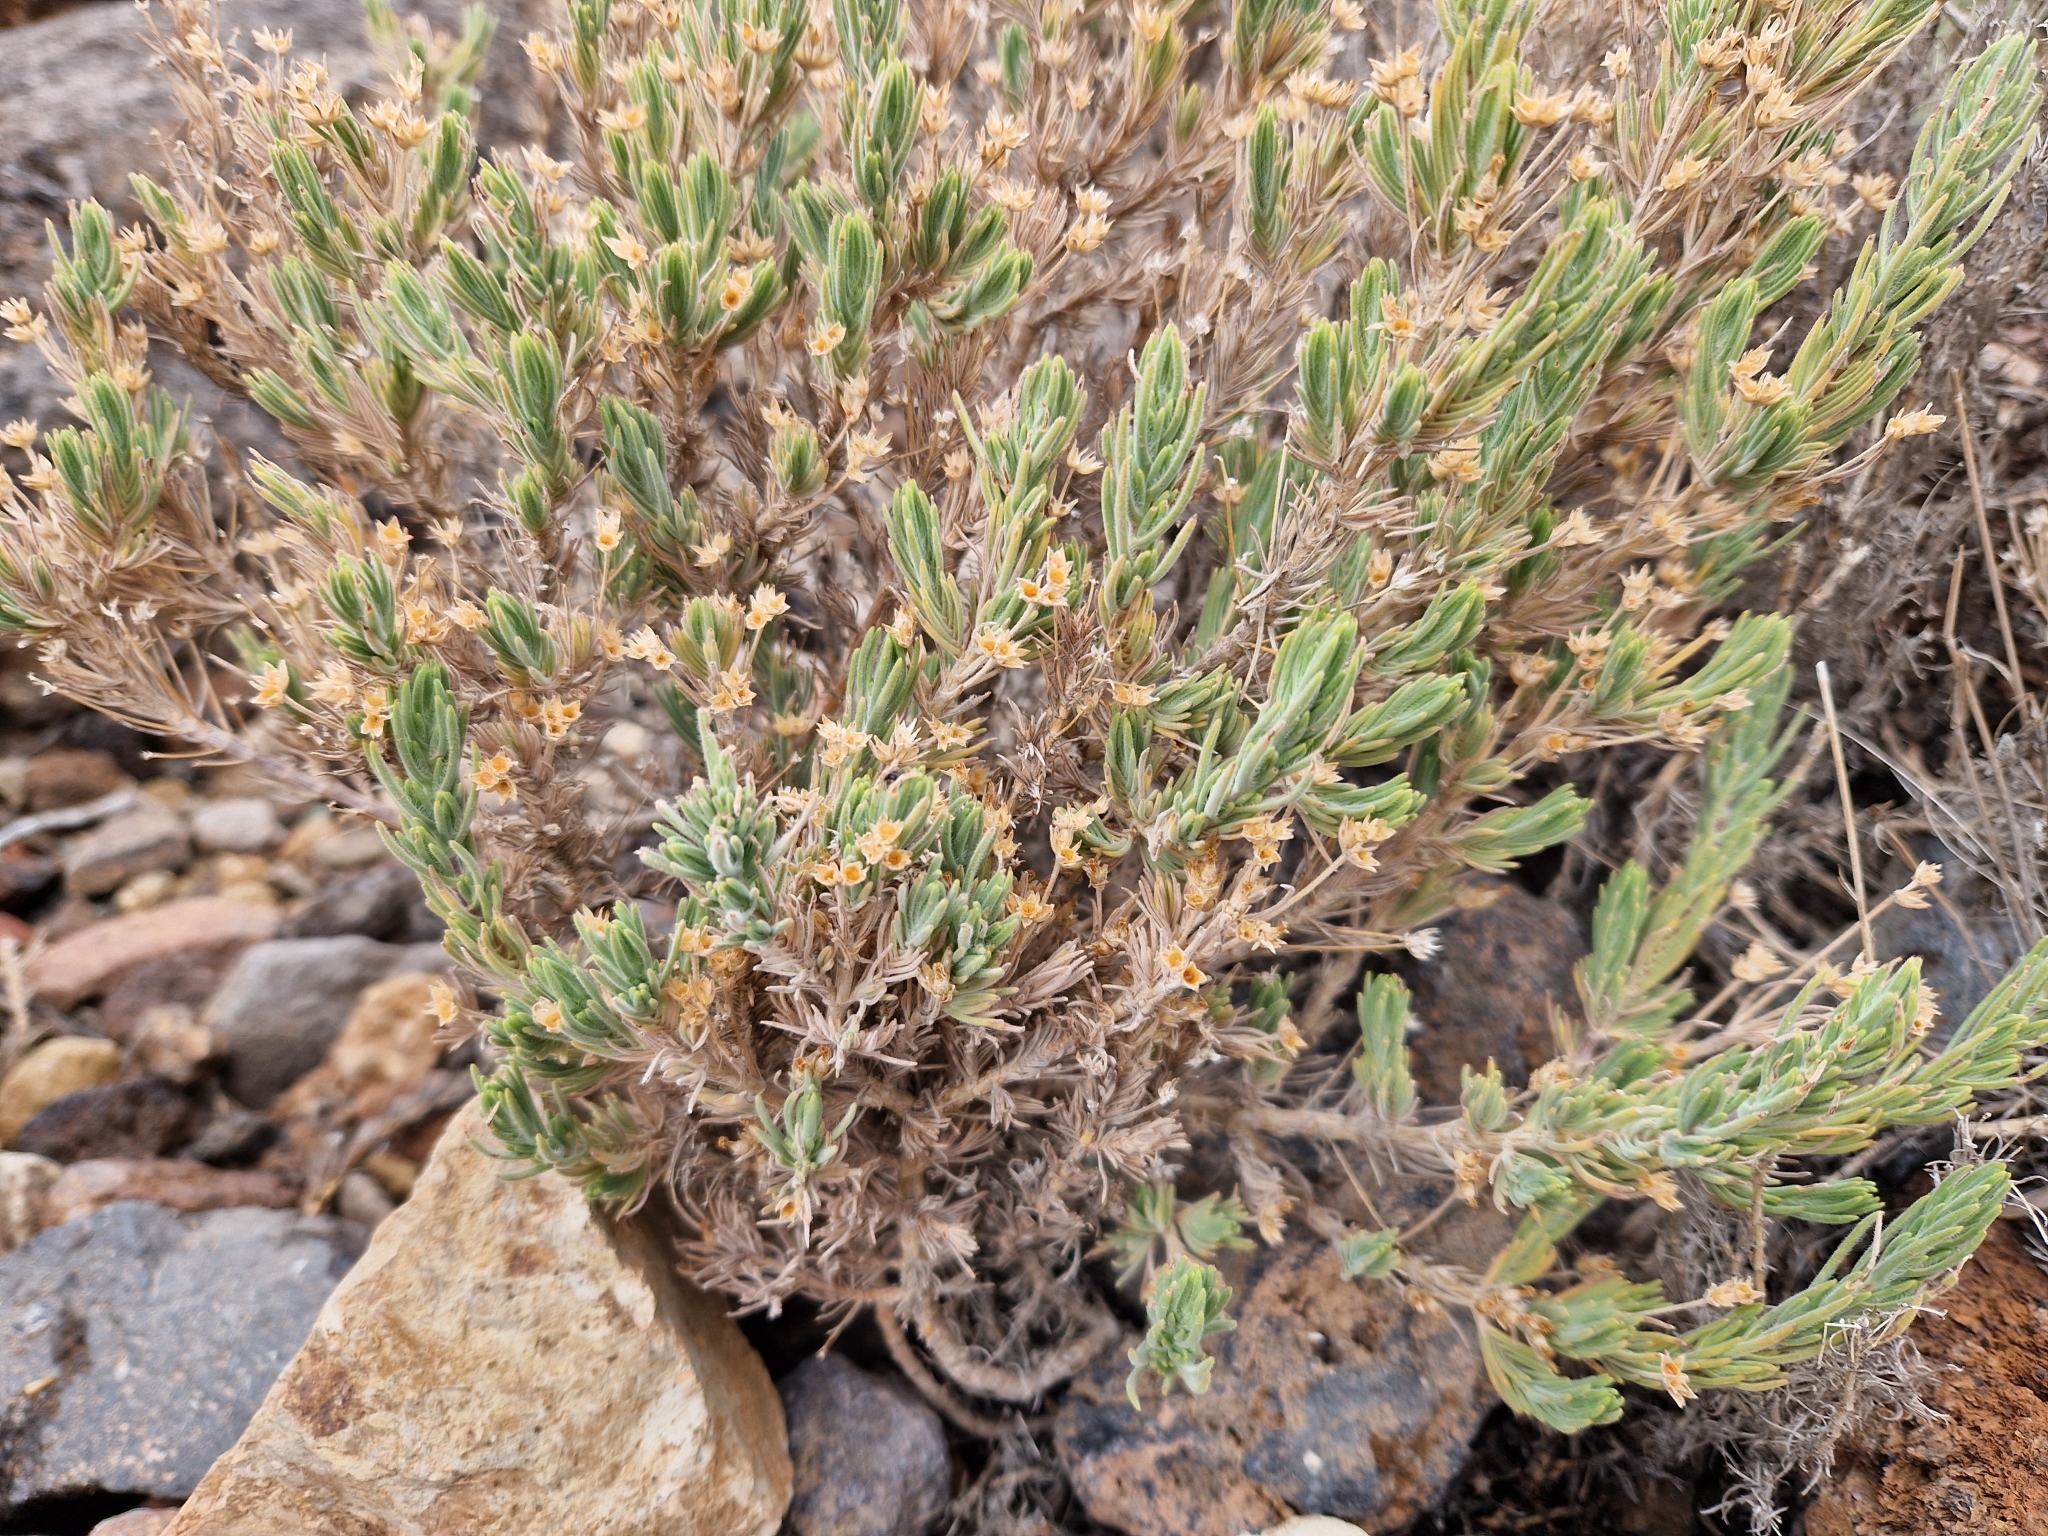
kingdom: Plantae
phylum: Tracheophyta
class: Magnoliopsida
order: Lamiales
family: Plantaginaceae
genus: Plantago
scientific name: Plantago webbii
